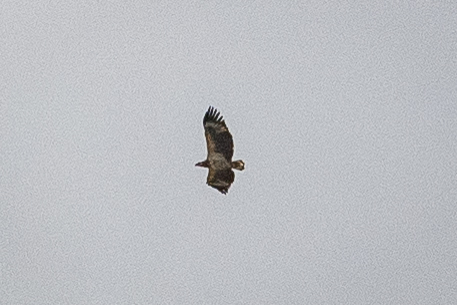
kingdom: Animalia
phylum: Chordata
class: Aves
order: Accipitriformes
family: Accipitridae
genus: Haliaeetus
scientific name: Haliaeetus vocifer
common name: African fish eagle
